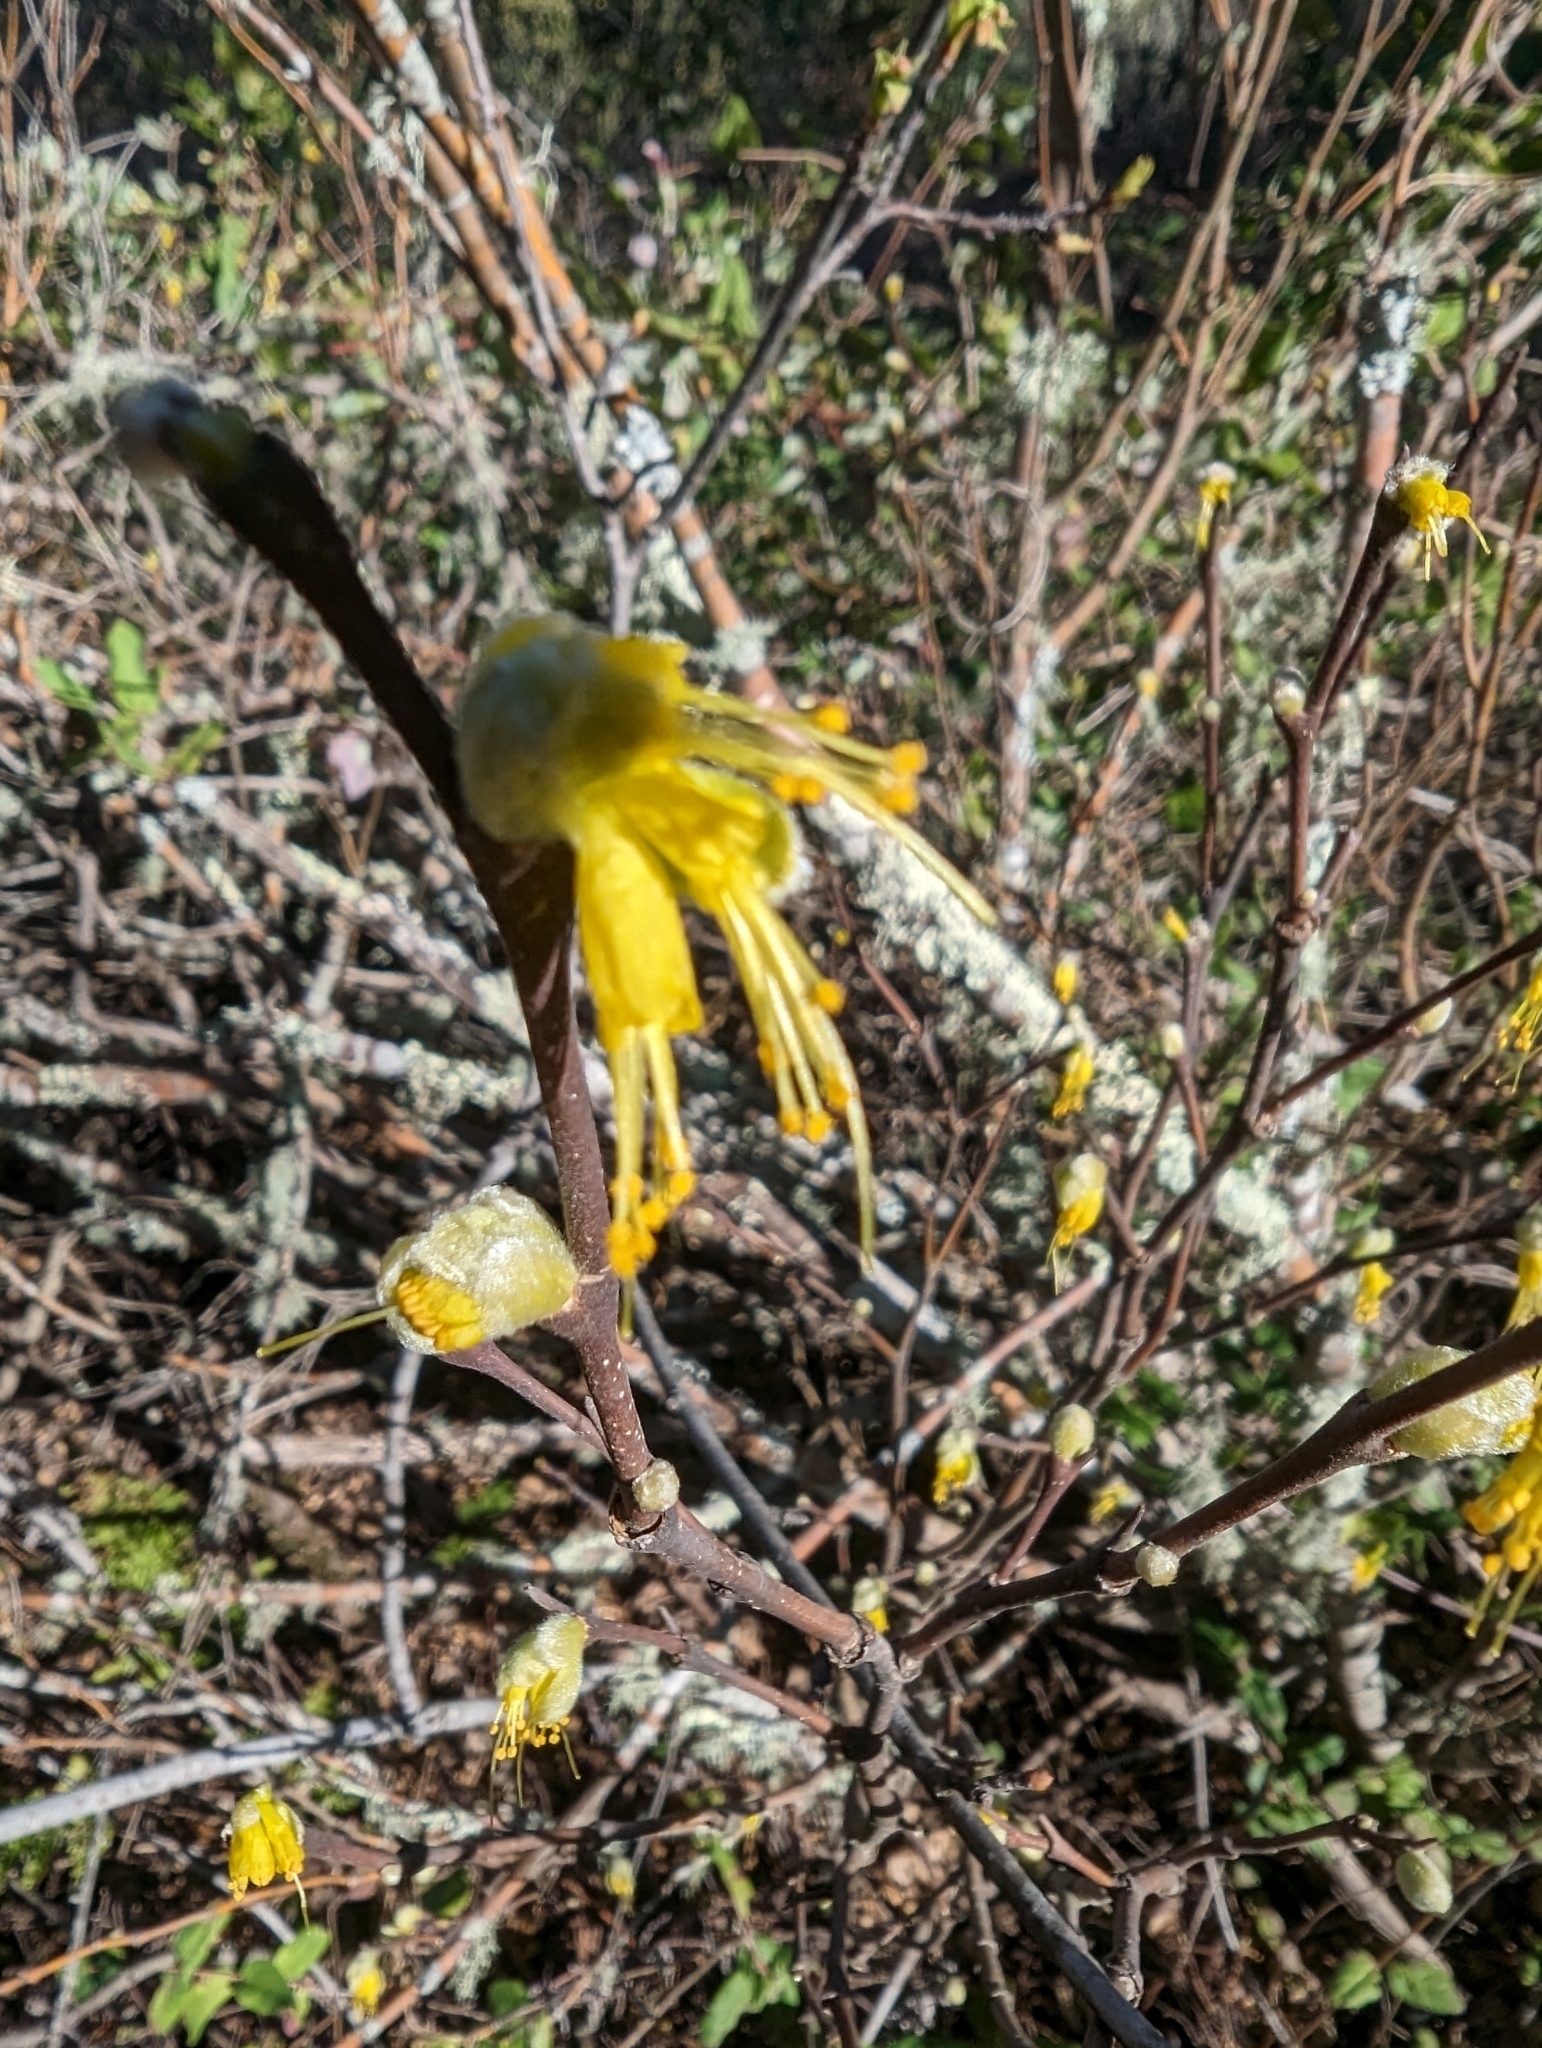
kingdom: Plantae
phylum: Tracheophyta
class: Magnoliopsida
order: Malvales
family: Thymelaeaceae
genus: Dirca
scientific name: Dirca occidentalis
